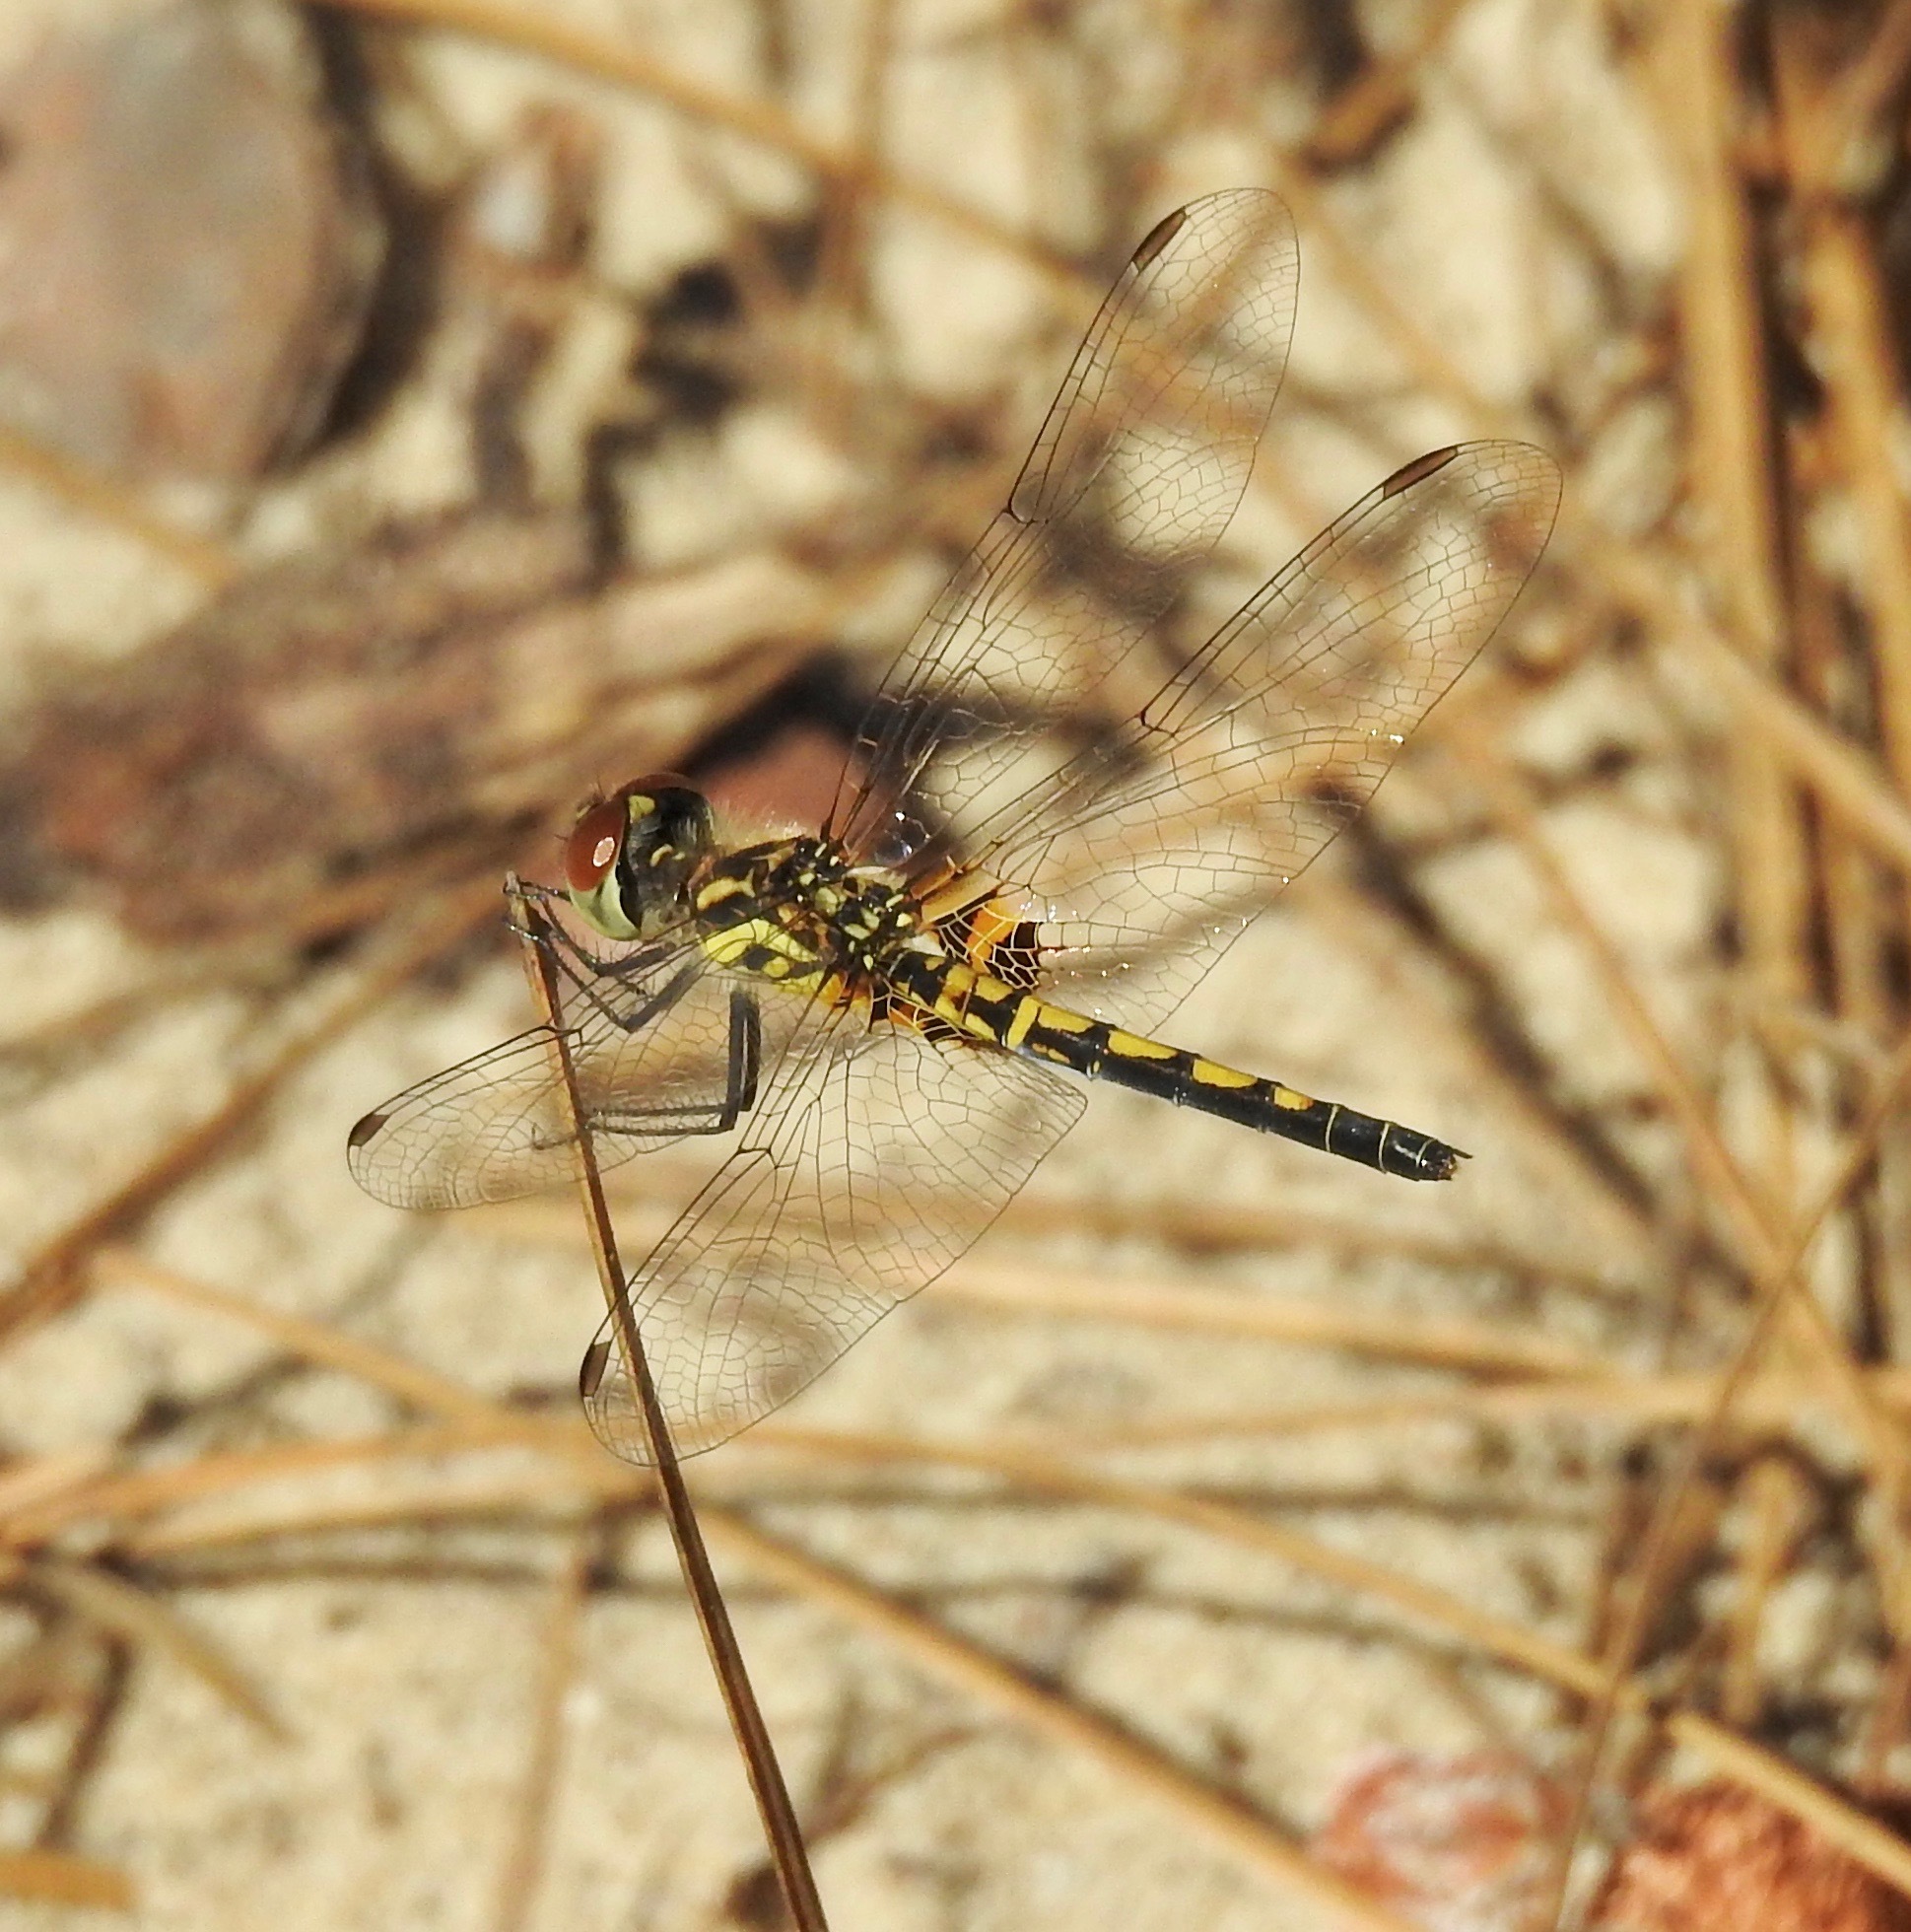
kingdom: Animalia
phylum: Arthropoda
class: Insecta
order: Odonata
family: Libellulidae
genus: Celithemis
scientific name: Celithemis ornata
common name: Ornate pennant
